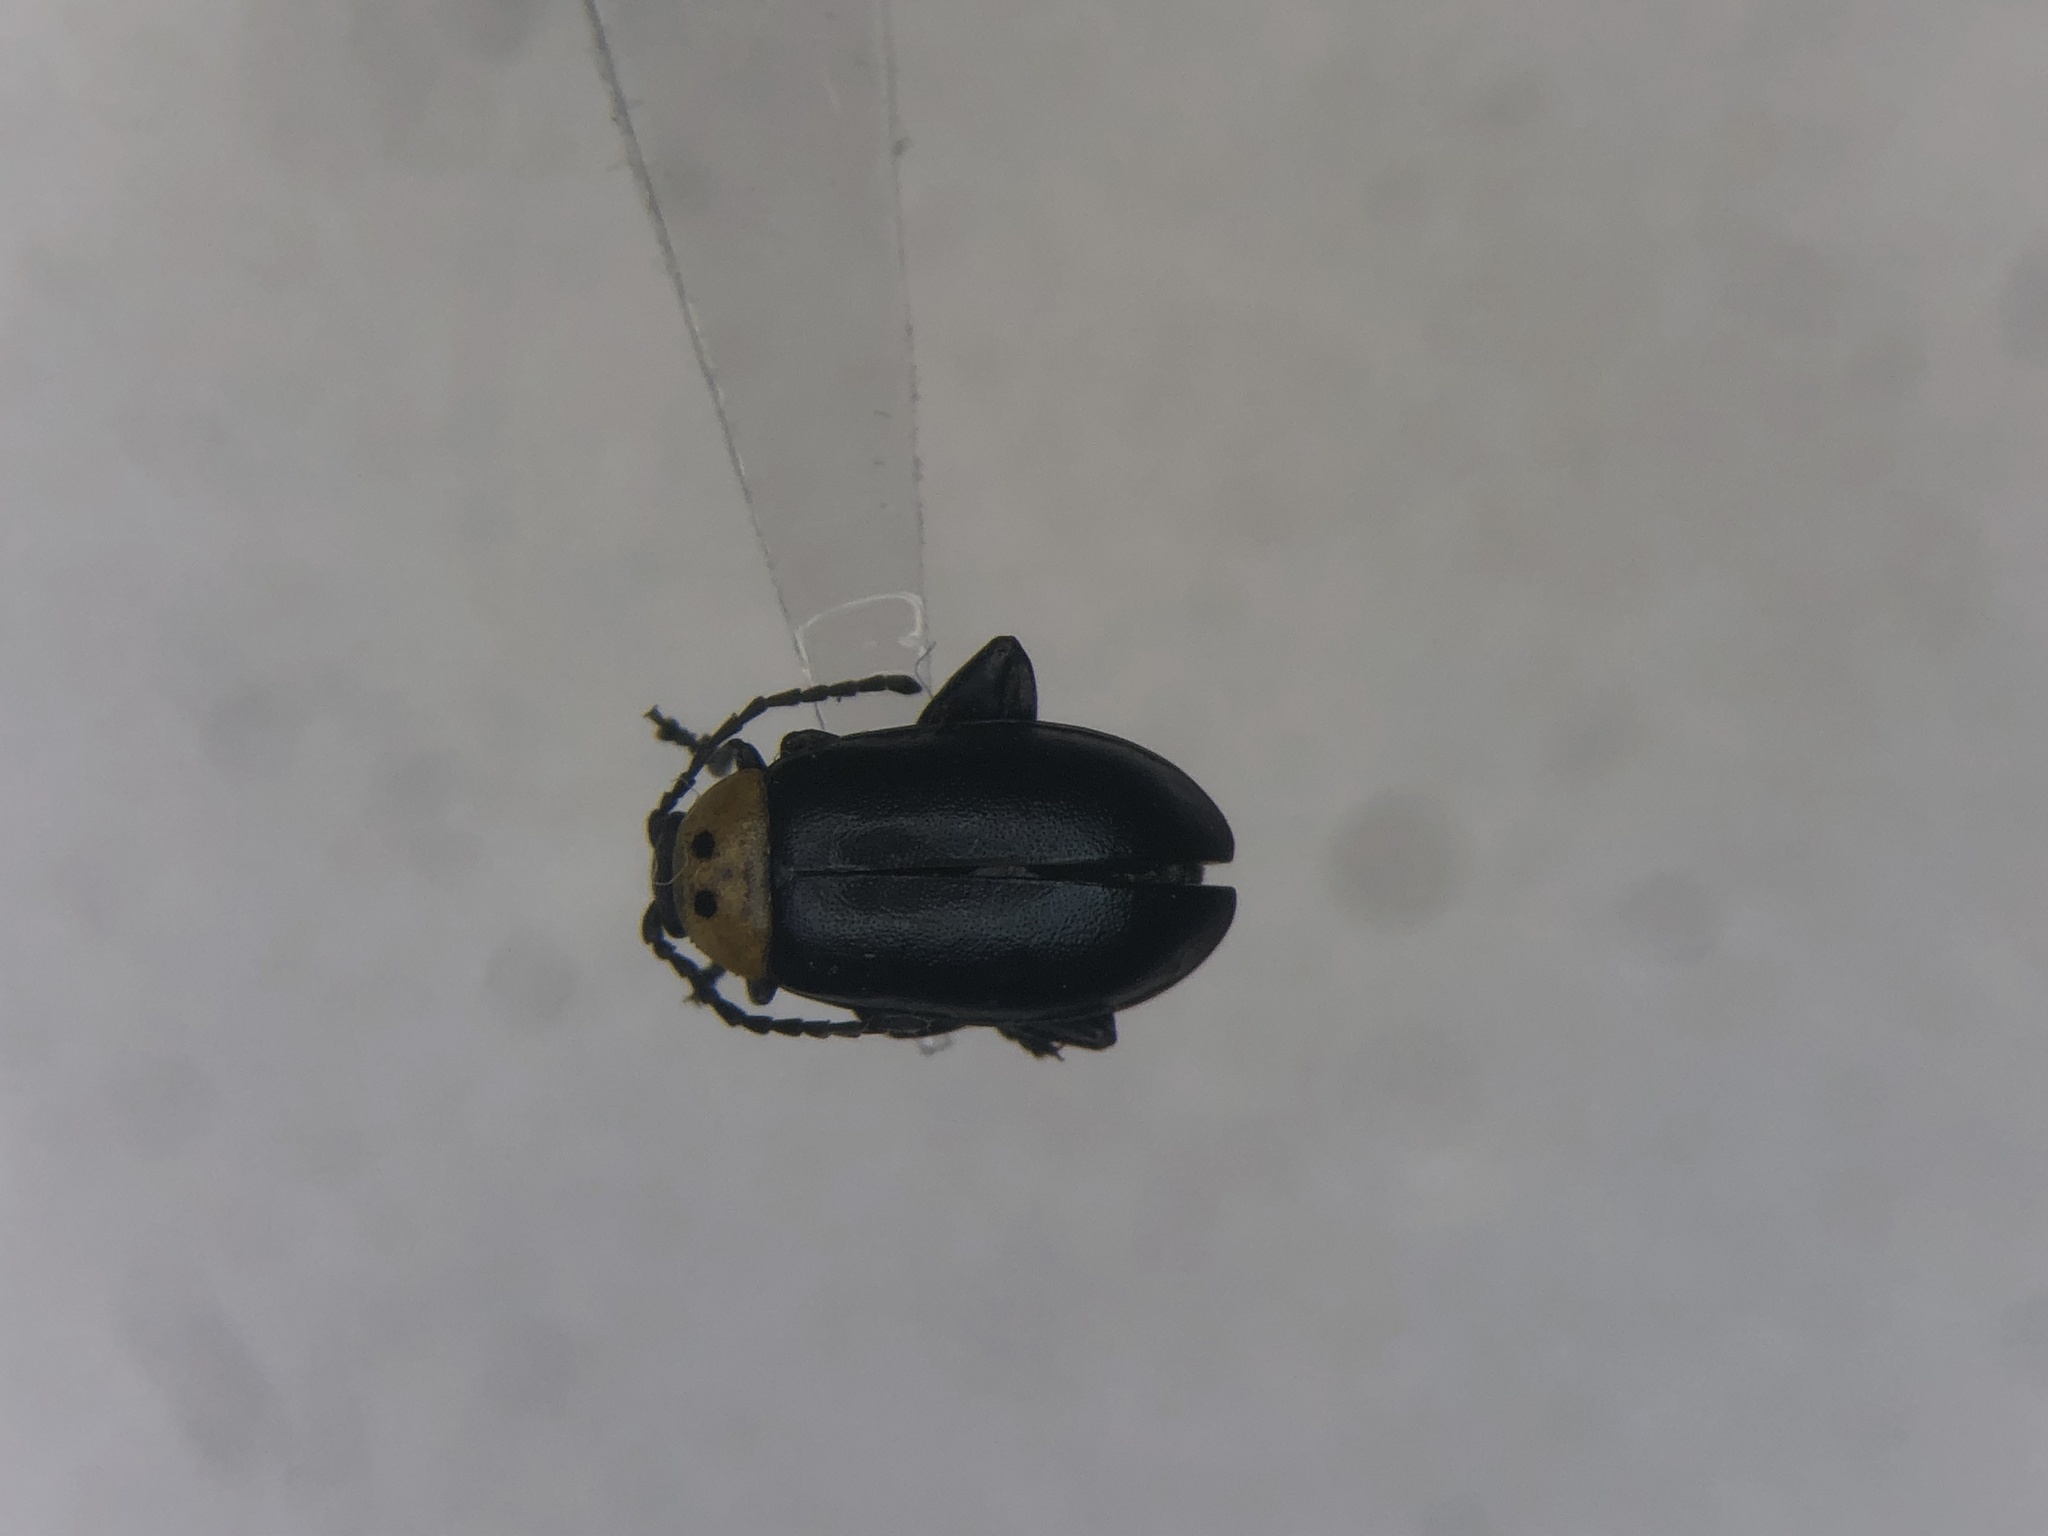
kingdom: Animalia
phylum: Arthropoda
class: Insecta
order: Coleoptera
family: Chrysomelidae
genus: Disonycha
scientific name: Disonycha triangularis
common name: Three-spotted flea beetle
